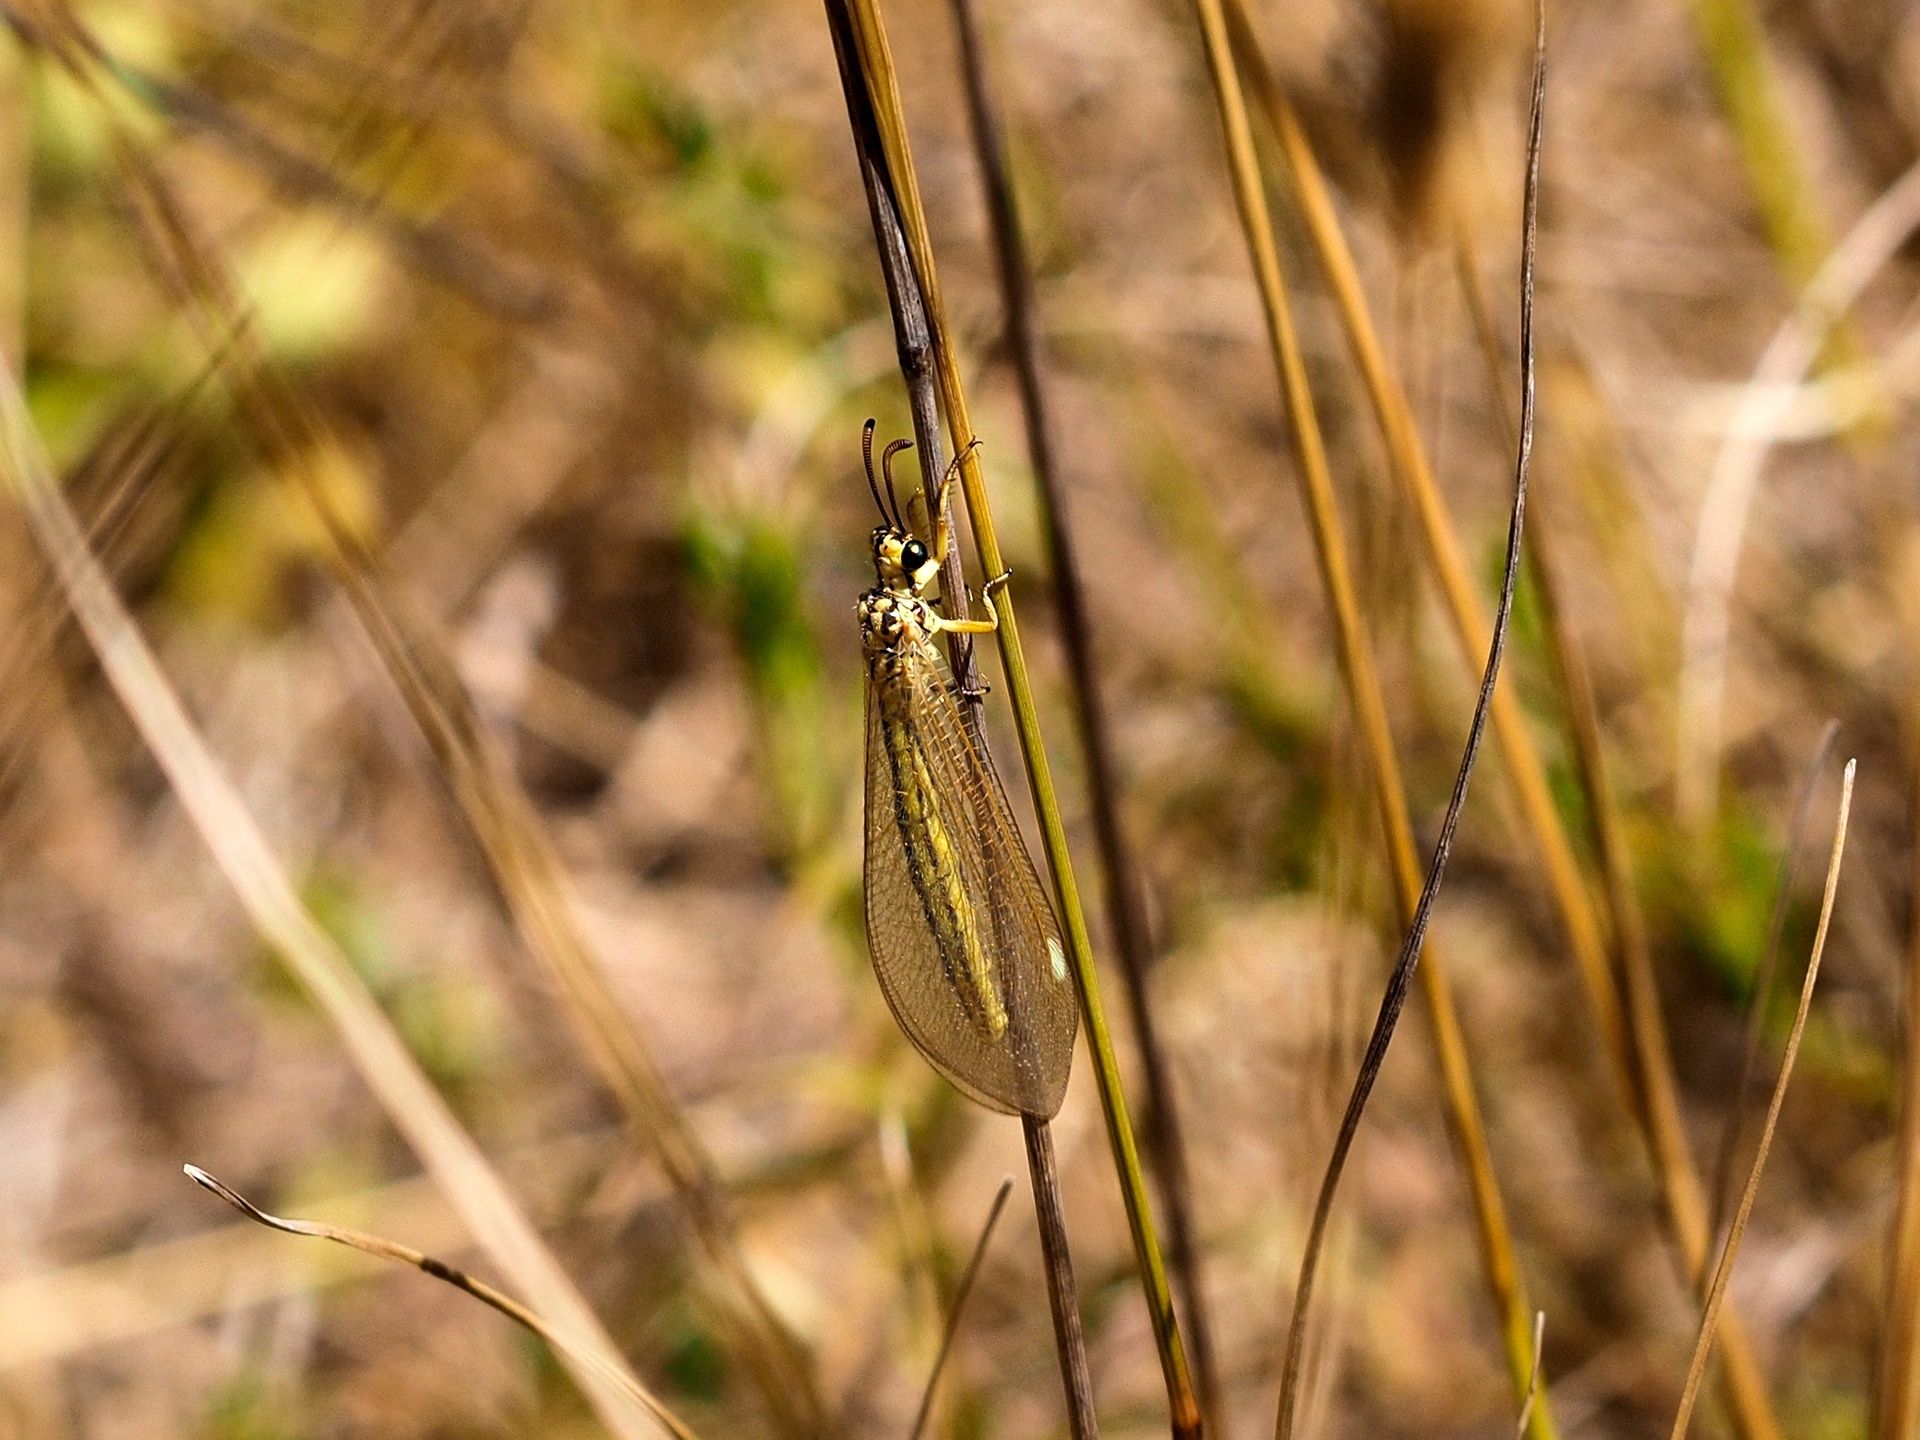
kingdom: Animalia
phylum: Arthropoda
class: Insecta
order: Neuroptera
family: Myrmeleontidae
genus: Myrmecaelurus
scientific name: Myrmecaelurus trigrammus
